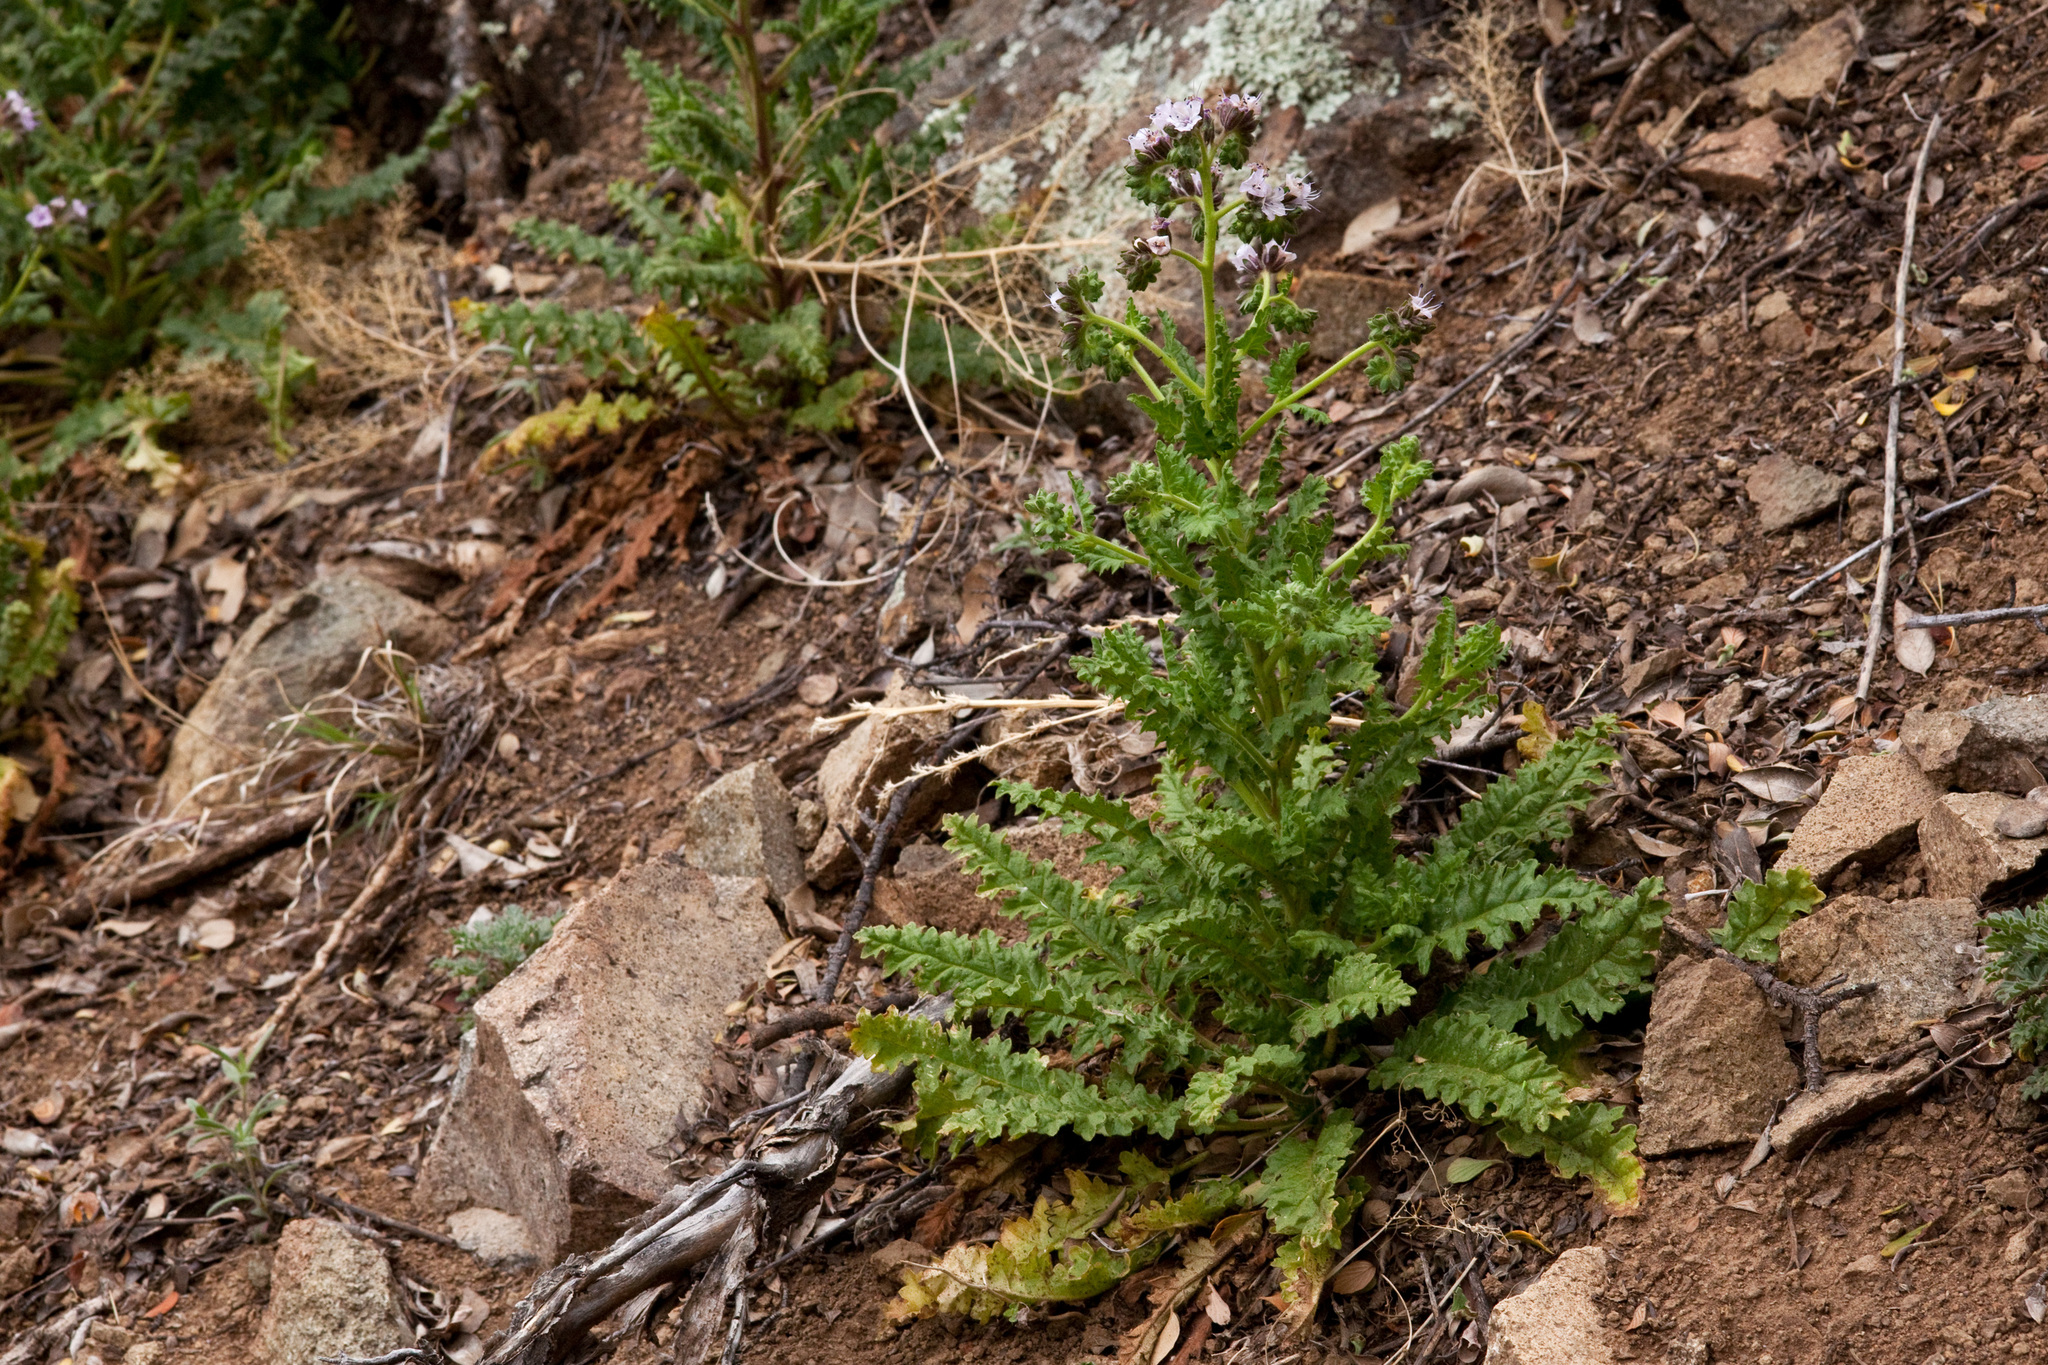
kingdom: Plantae
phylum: Tracheophyta
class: Magnoliopsida
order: Boraginales
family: Hydrophyllaceae
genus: Phacelia
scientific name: Phacelia integrifolia
